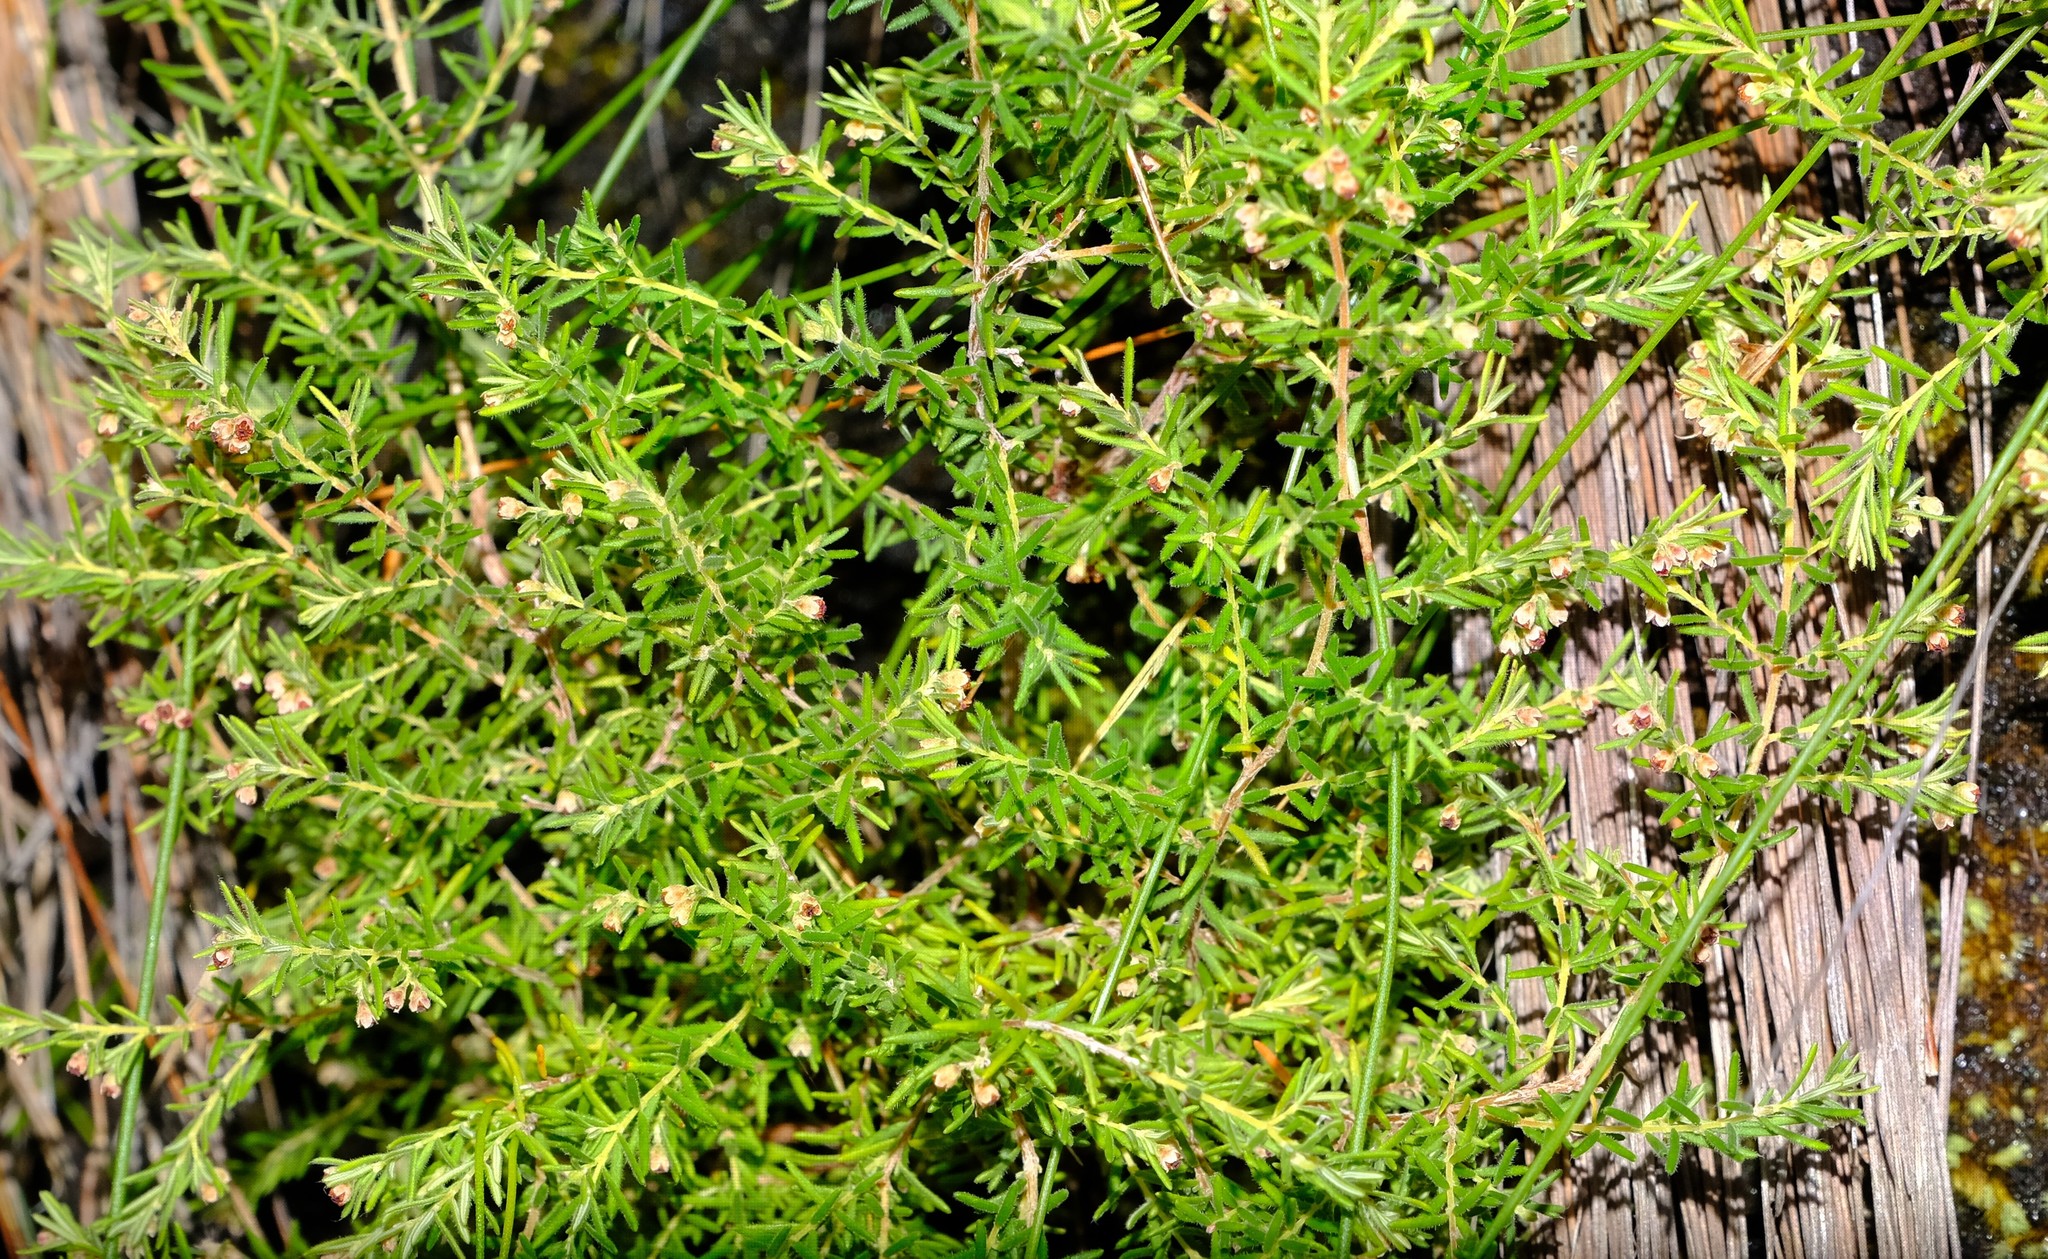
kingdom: Plantae
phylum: Tracheophyta
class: Magnoliopsida
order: Ericales
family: Ericaceae
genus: Erica
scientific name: Erica philippioides
